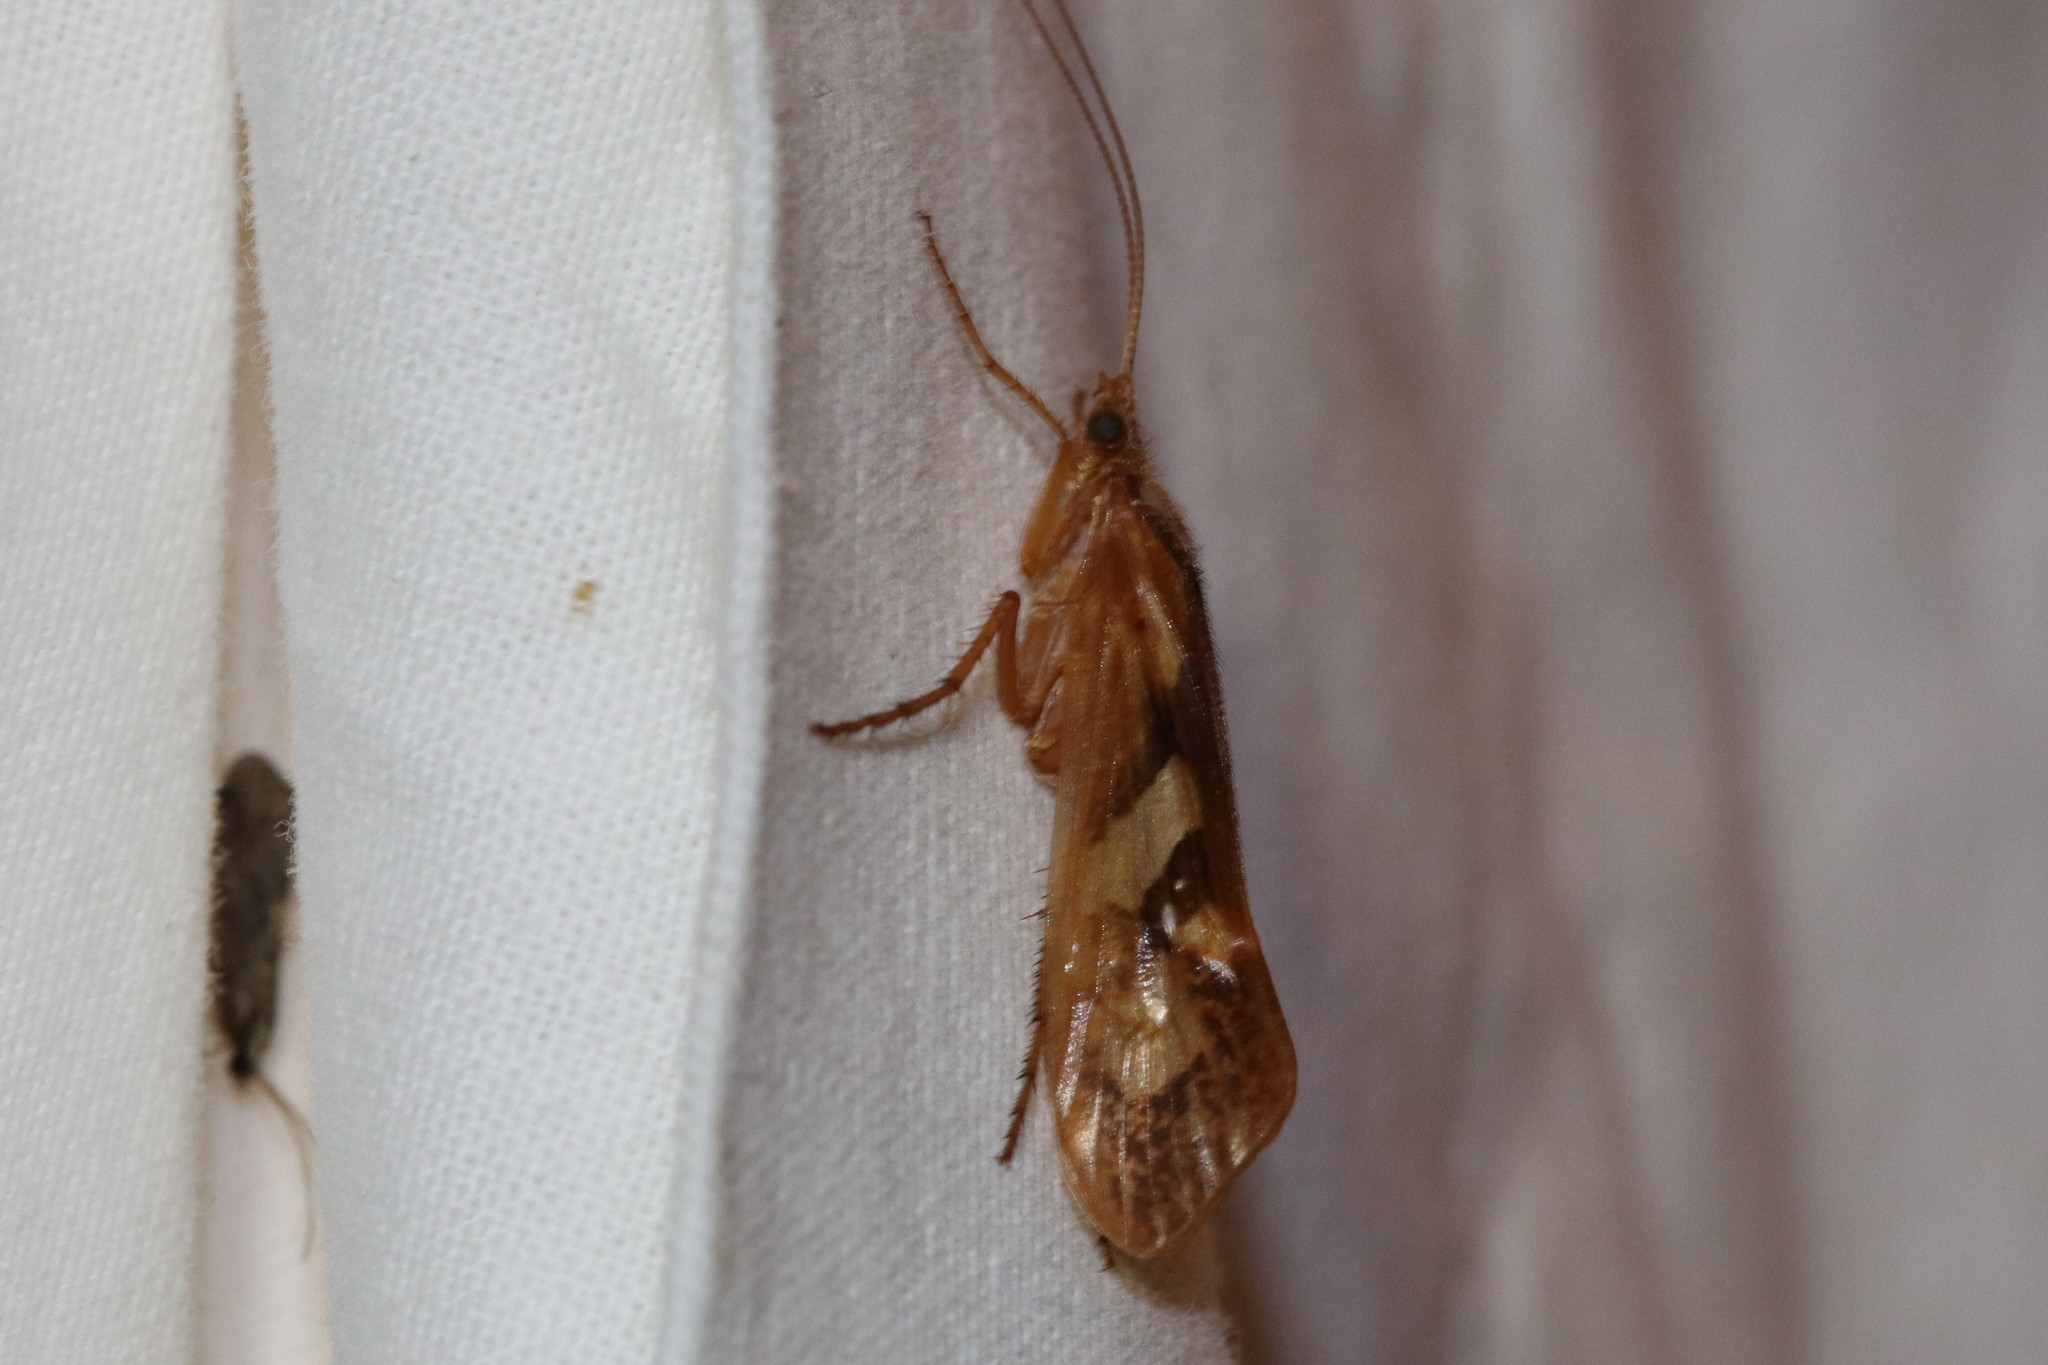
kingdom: Animalia
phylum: Arthropoda
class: Insecta
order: Trichoptera
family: Limnephilidae
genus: Limnephilus
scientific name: Limnephilus rhombicus
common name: Diamond northern caddisfly
